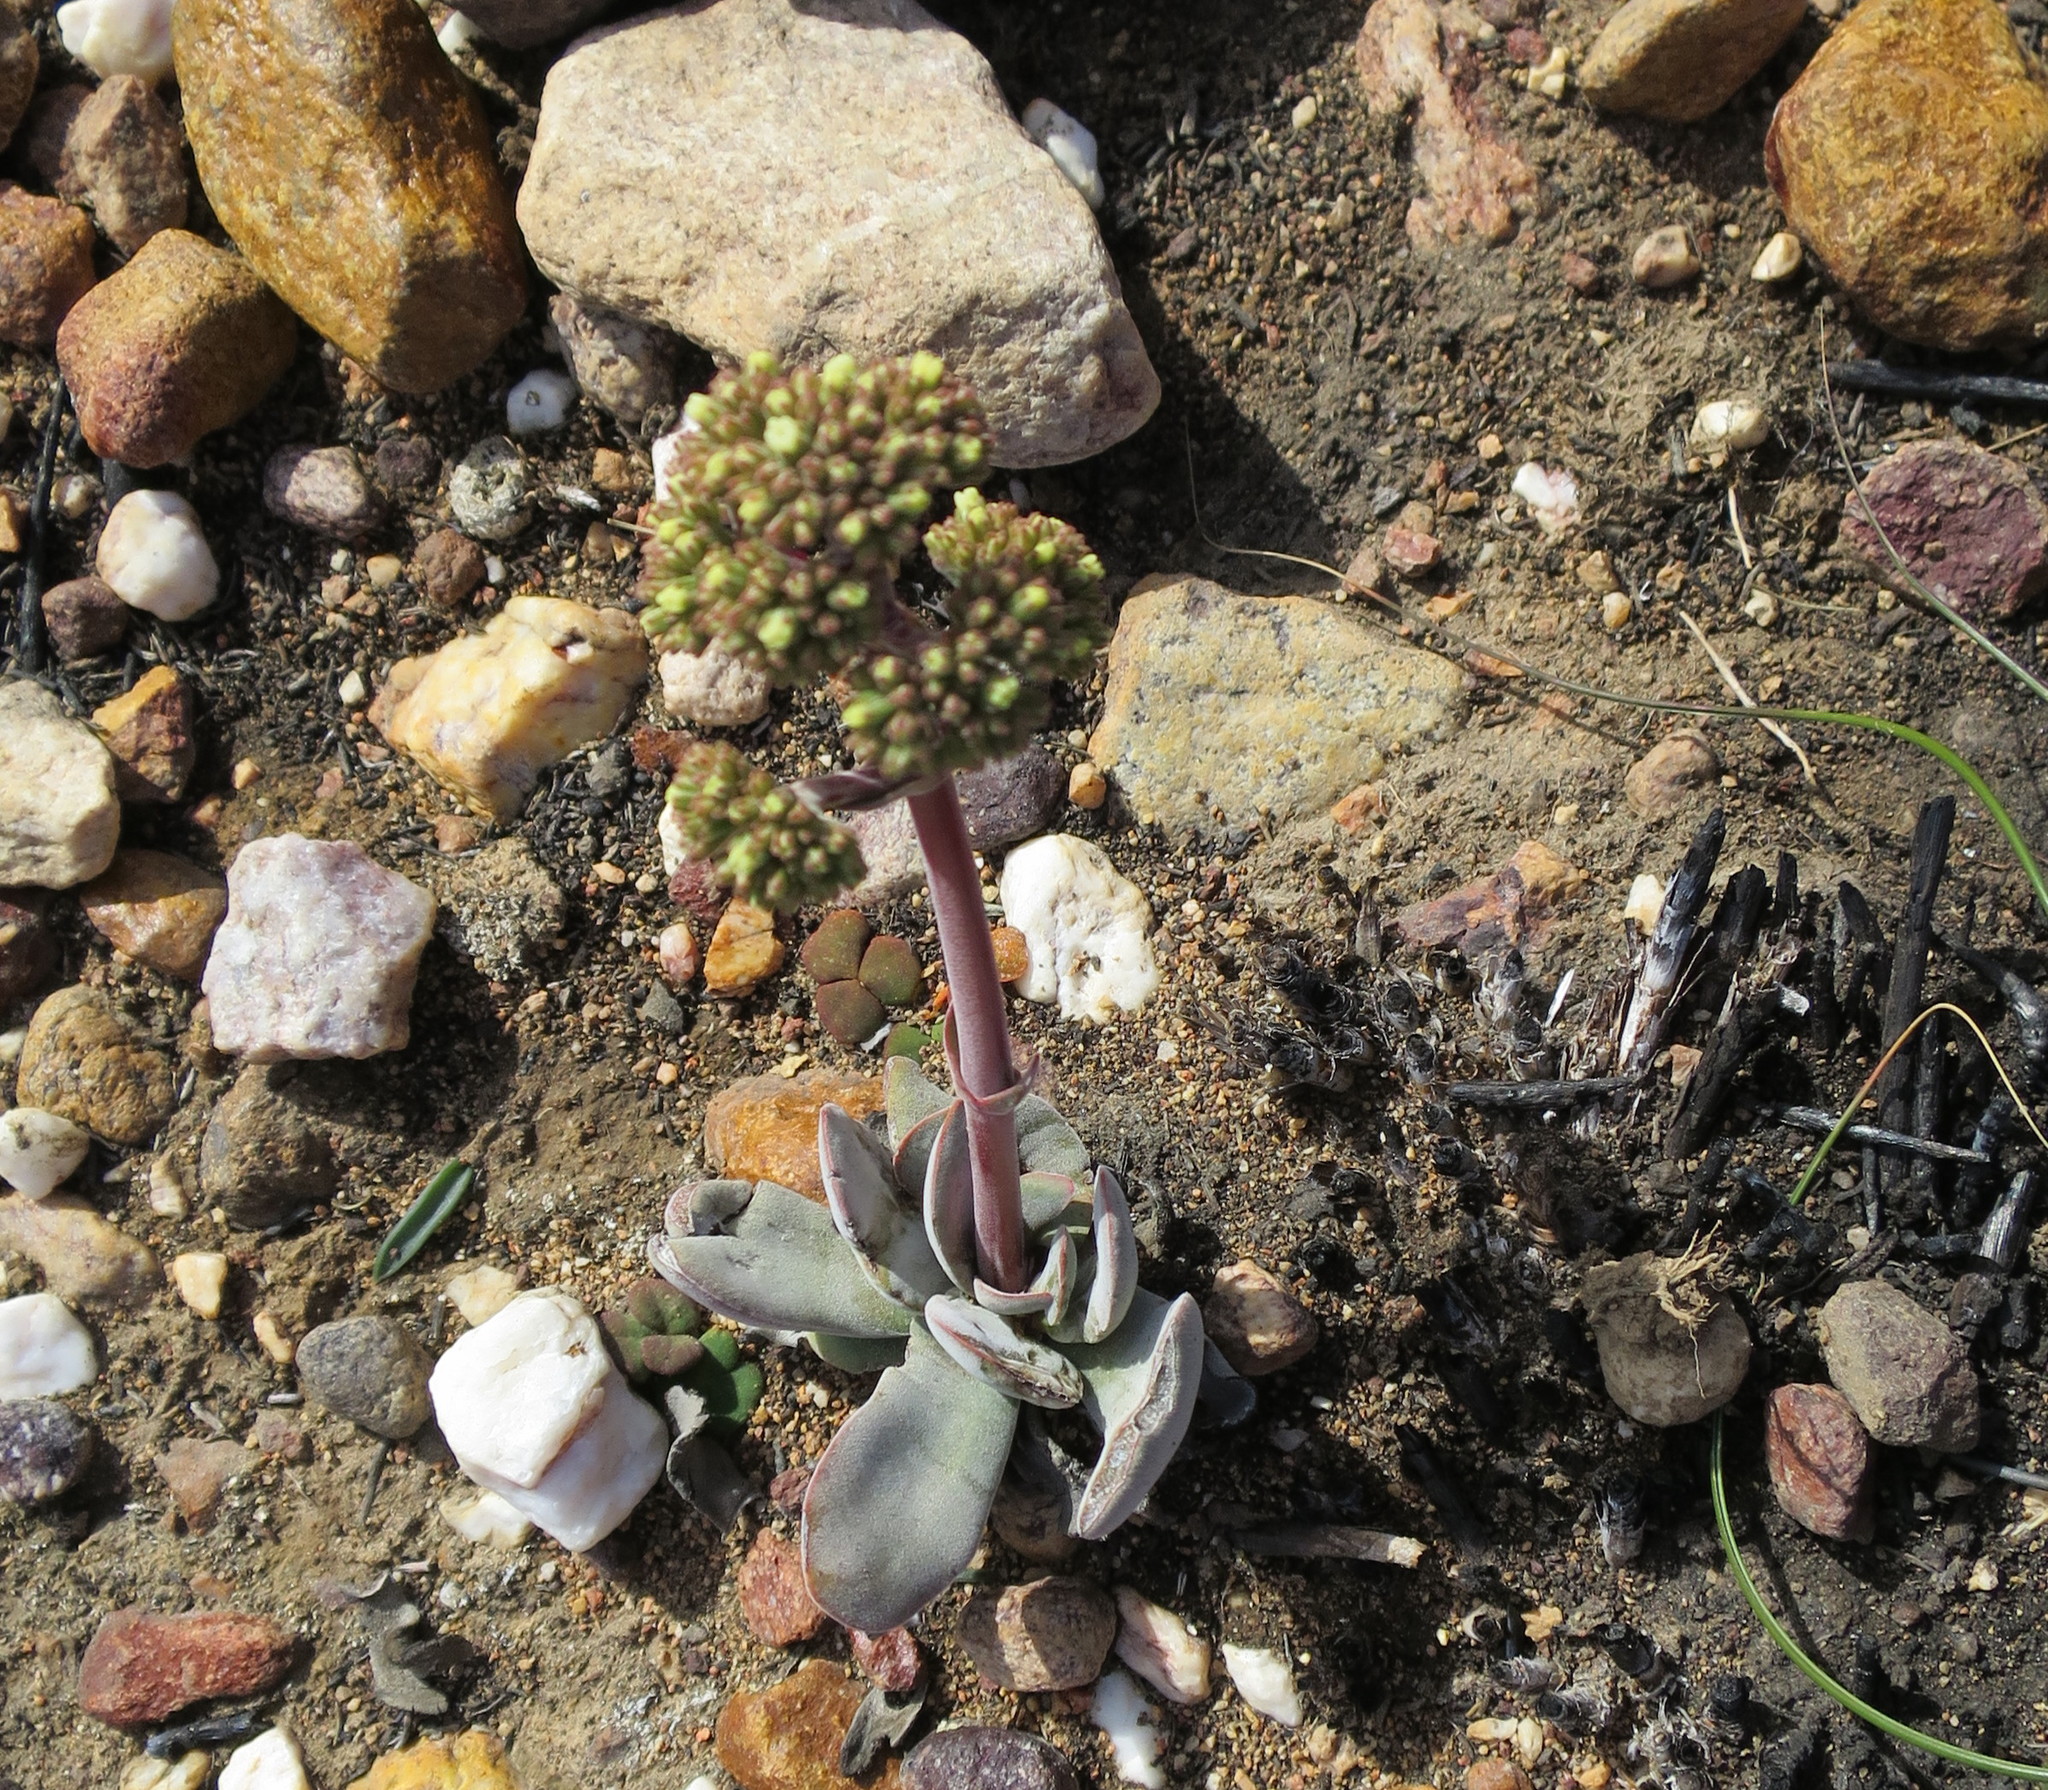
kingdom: Plantae
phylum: Tracheophyta
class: Magnoliopsida
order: Saxifragales
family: Crassulaceae
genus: Crassula
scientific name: Crassula cotyledonis
